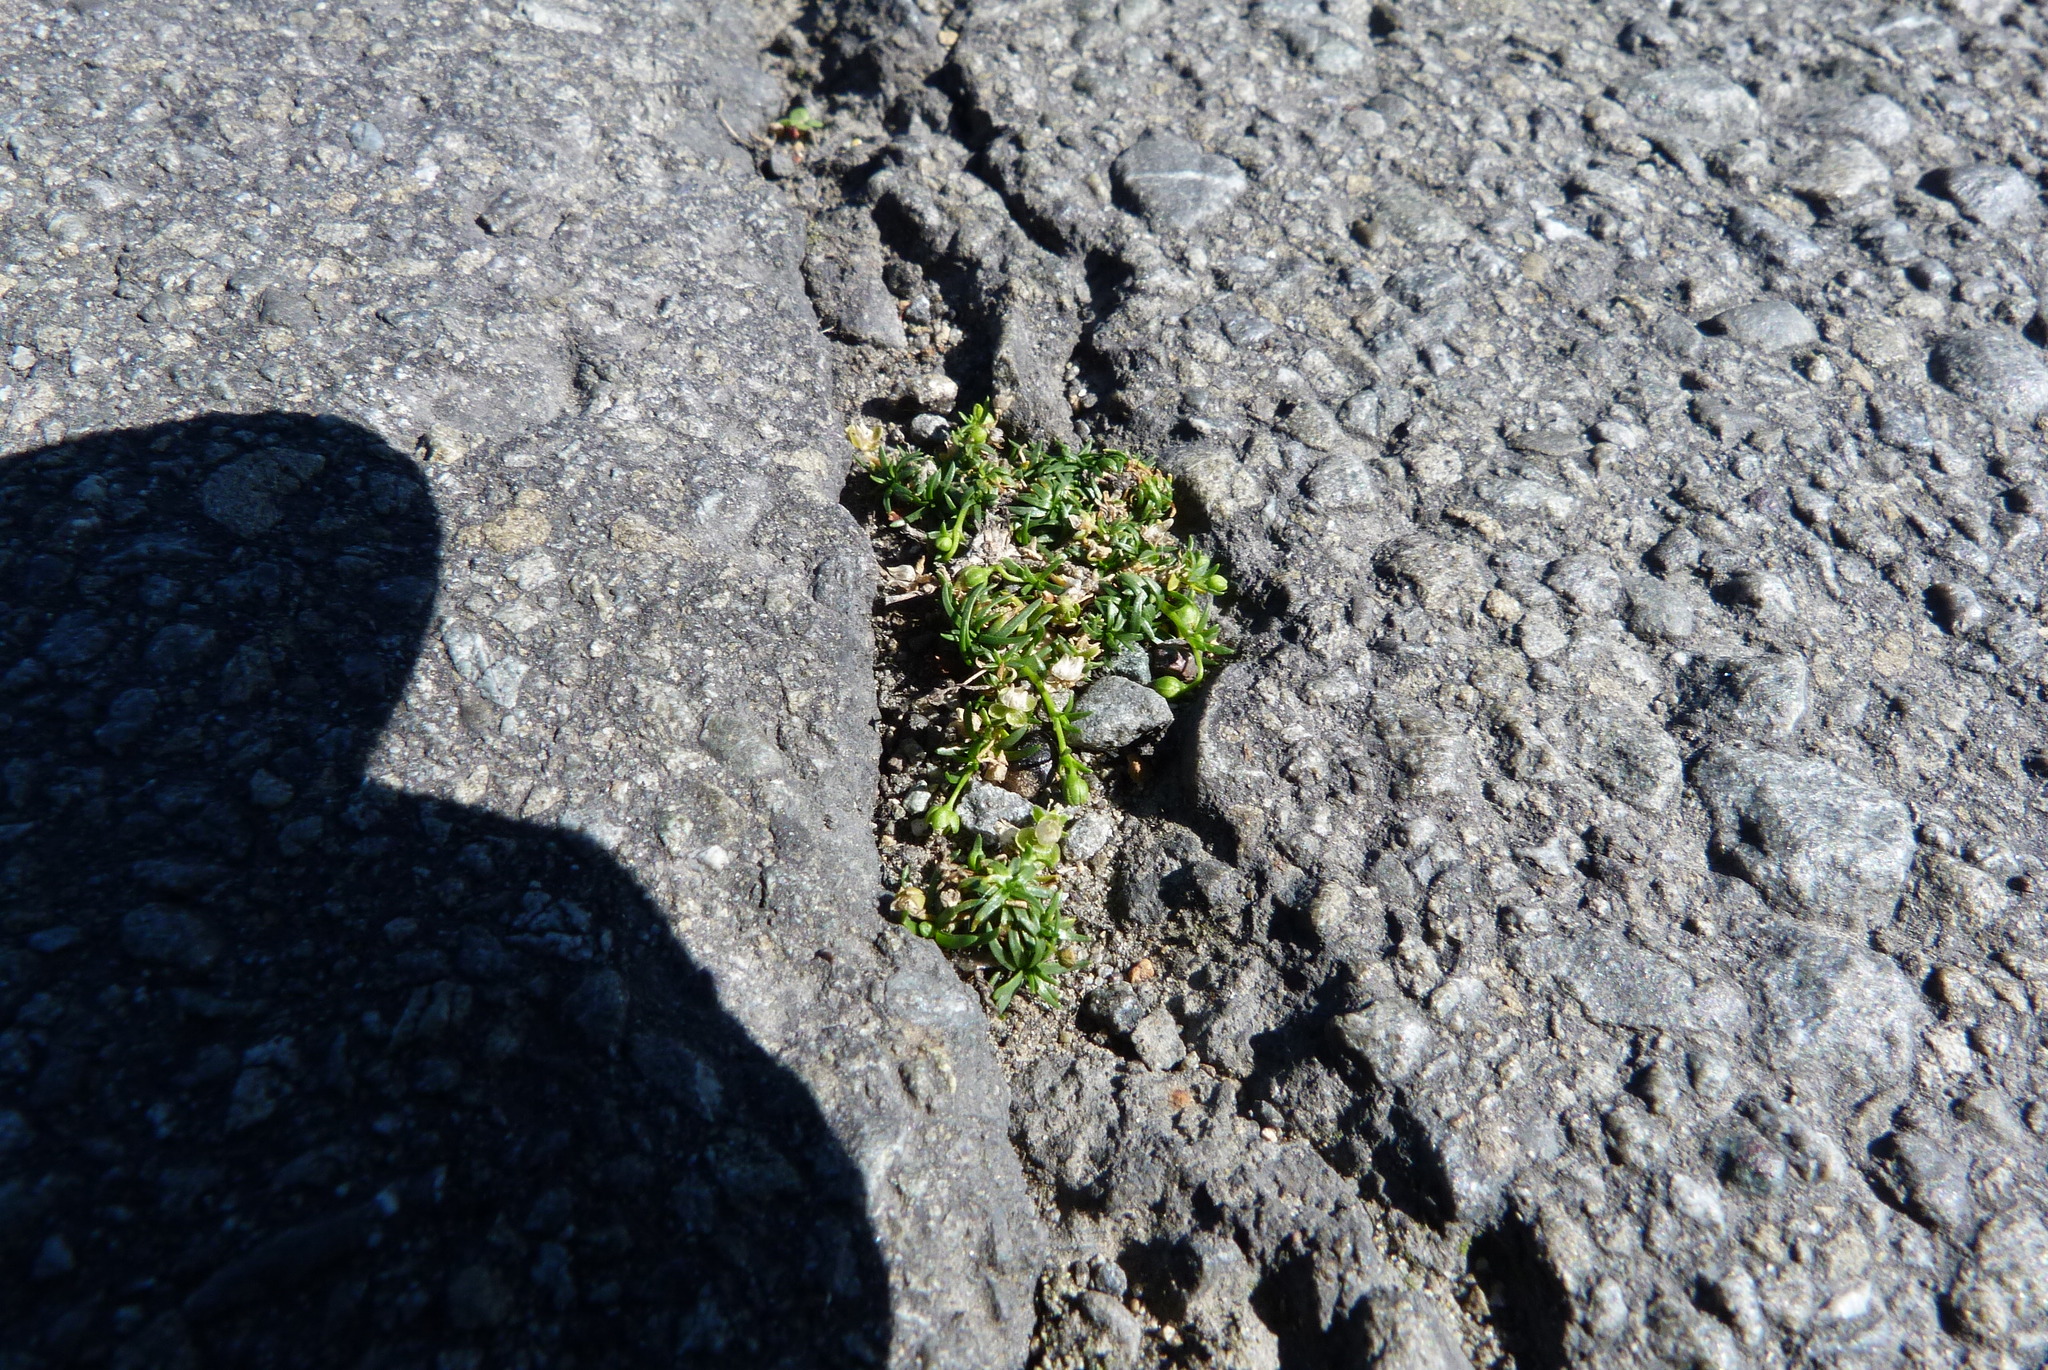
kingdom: Plantae
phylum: Tracheophyta
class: Magnoliopsida
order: Caryophyllales
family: Caryophyllaceae
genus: Sagina
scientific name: Sagina procumbens
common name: Procumbent pearlwort
